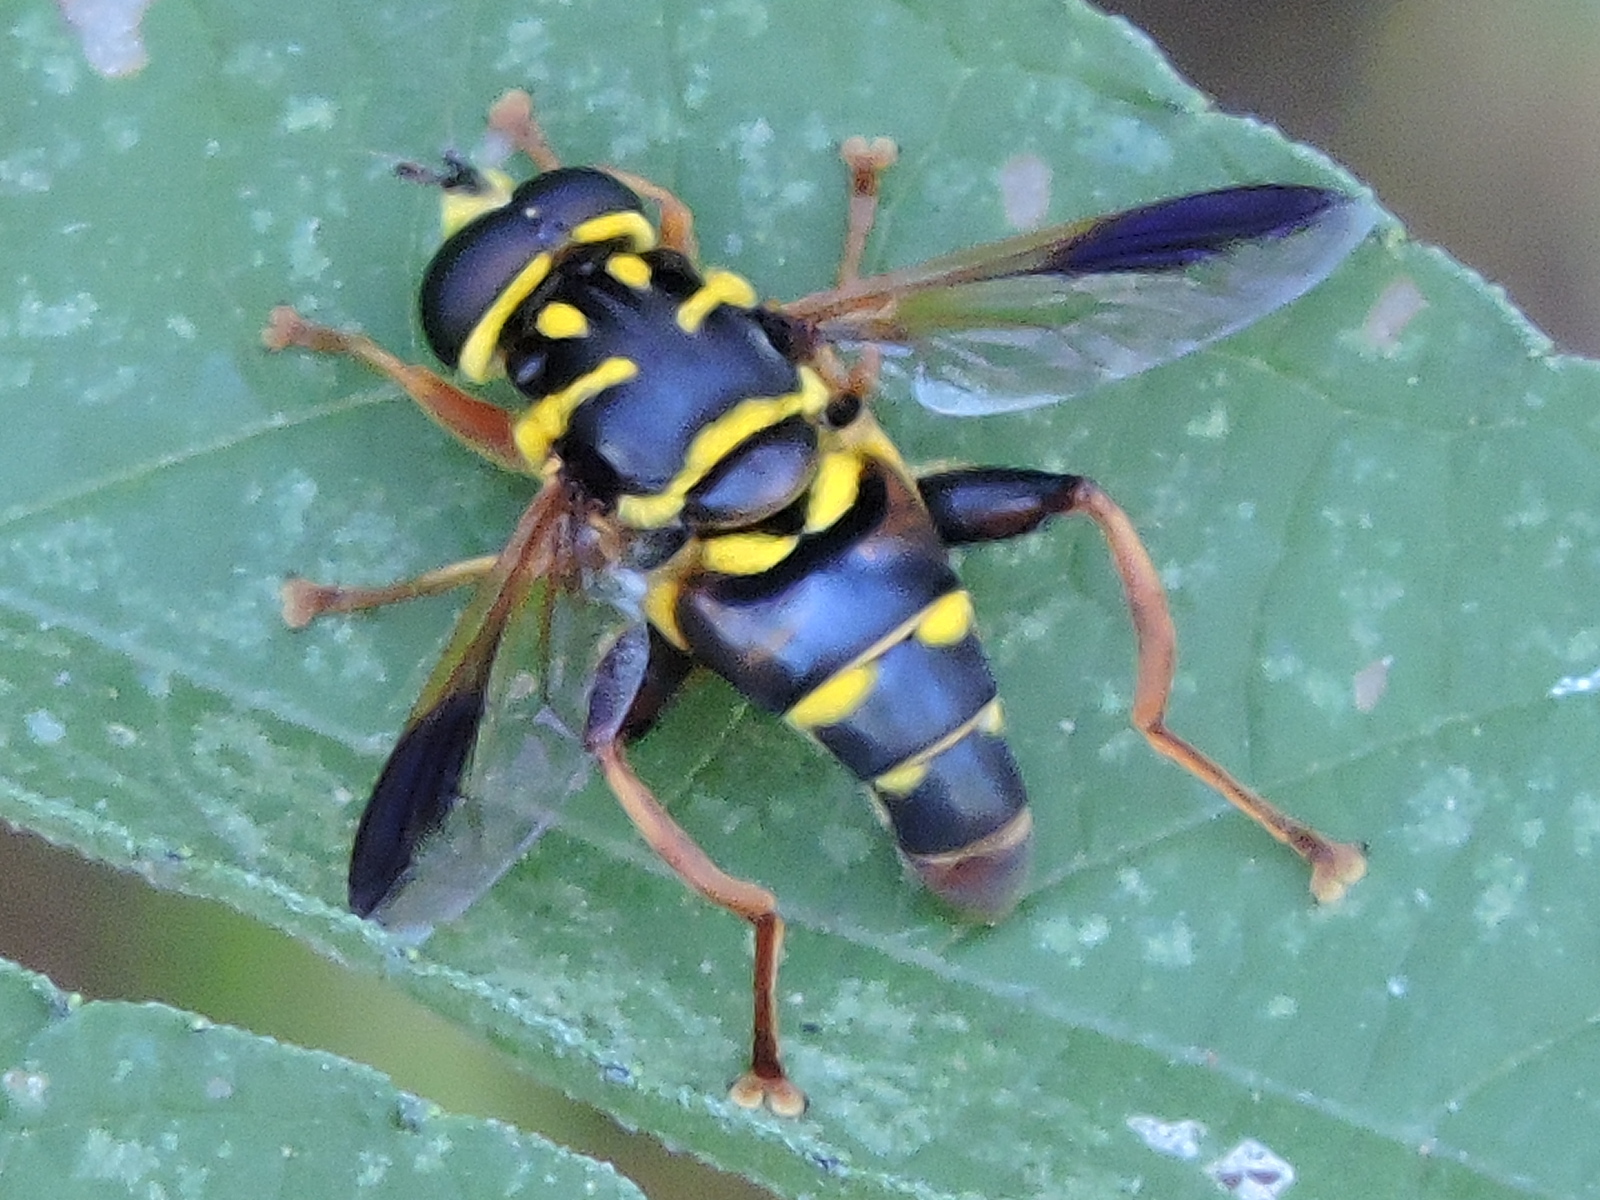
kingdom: Animalia
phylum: Arthropoda
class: Insecta
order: Diptera
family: Syrphidae
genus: Meromacrus
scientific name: Meromacrus acutus
